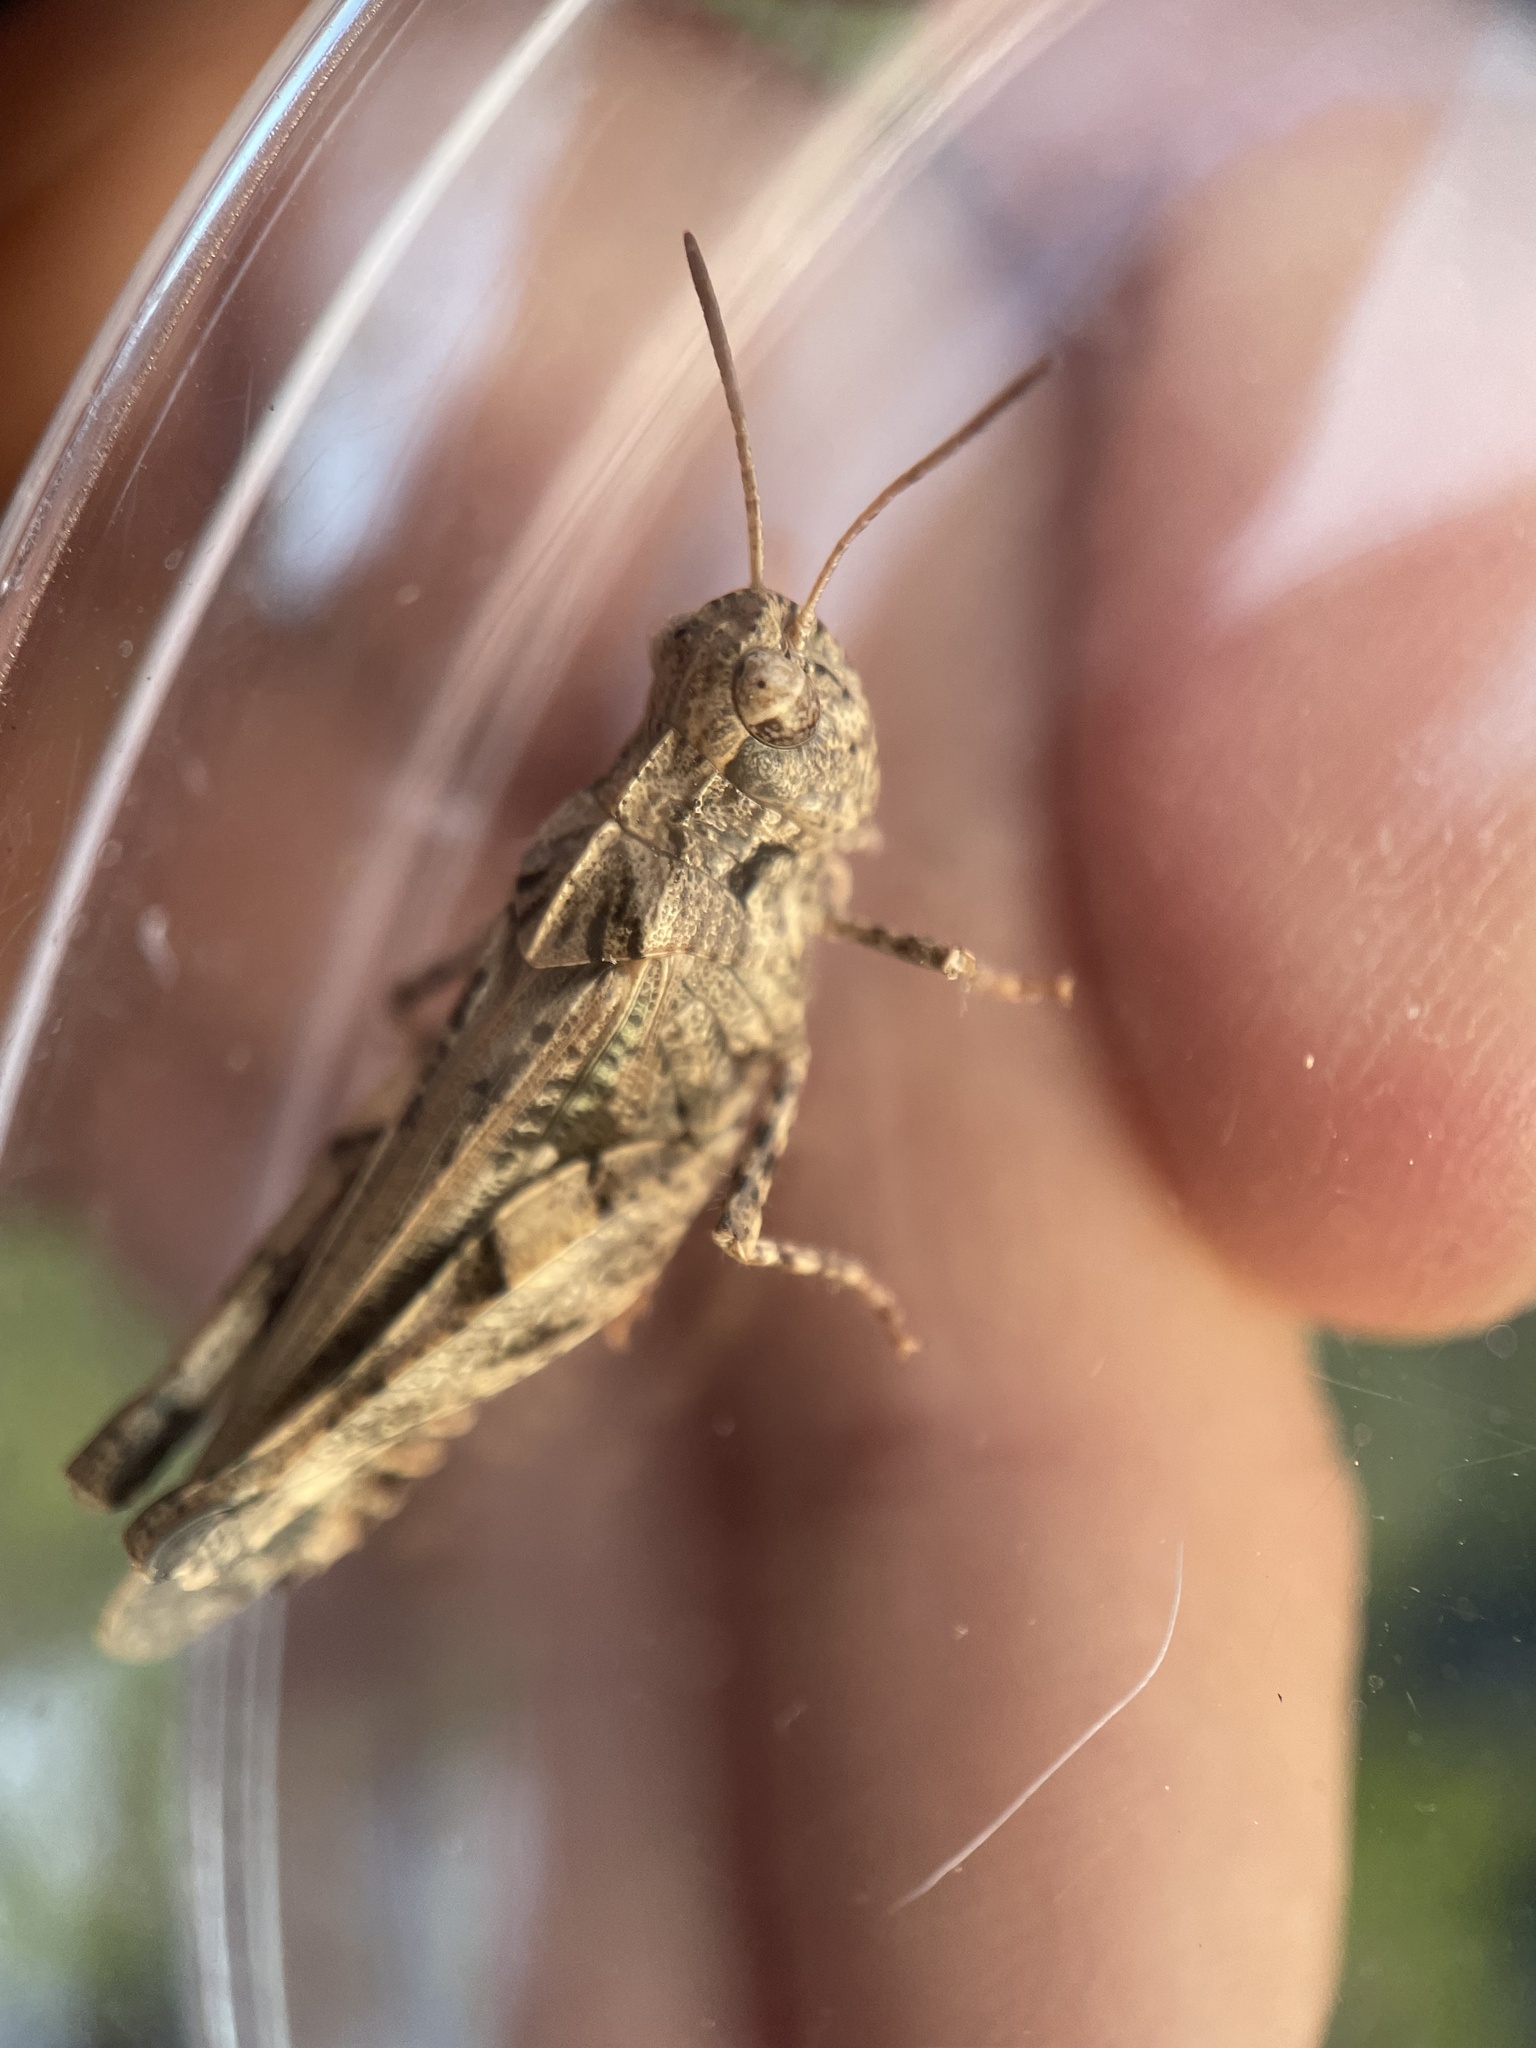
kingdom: Animalia
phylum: Arthropoda
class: Insecta
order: Orthoptera
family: Acrididae
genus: Encoptolophus
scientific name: Encoptolophus costalis
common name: Dusky grasshopper
